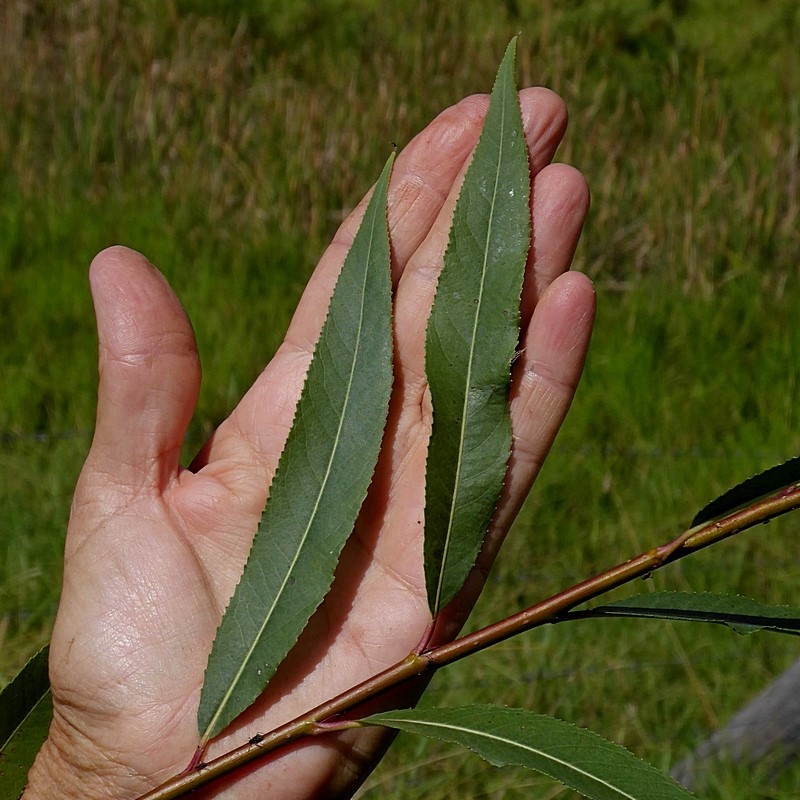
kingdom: Plantae
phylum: Tracheophyta
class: Magnoliopsida
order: Malpighiales
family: Salicaceae
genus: Salix
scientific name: Salix nigra
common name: Black willow
